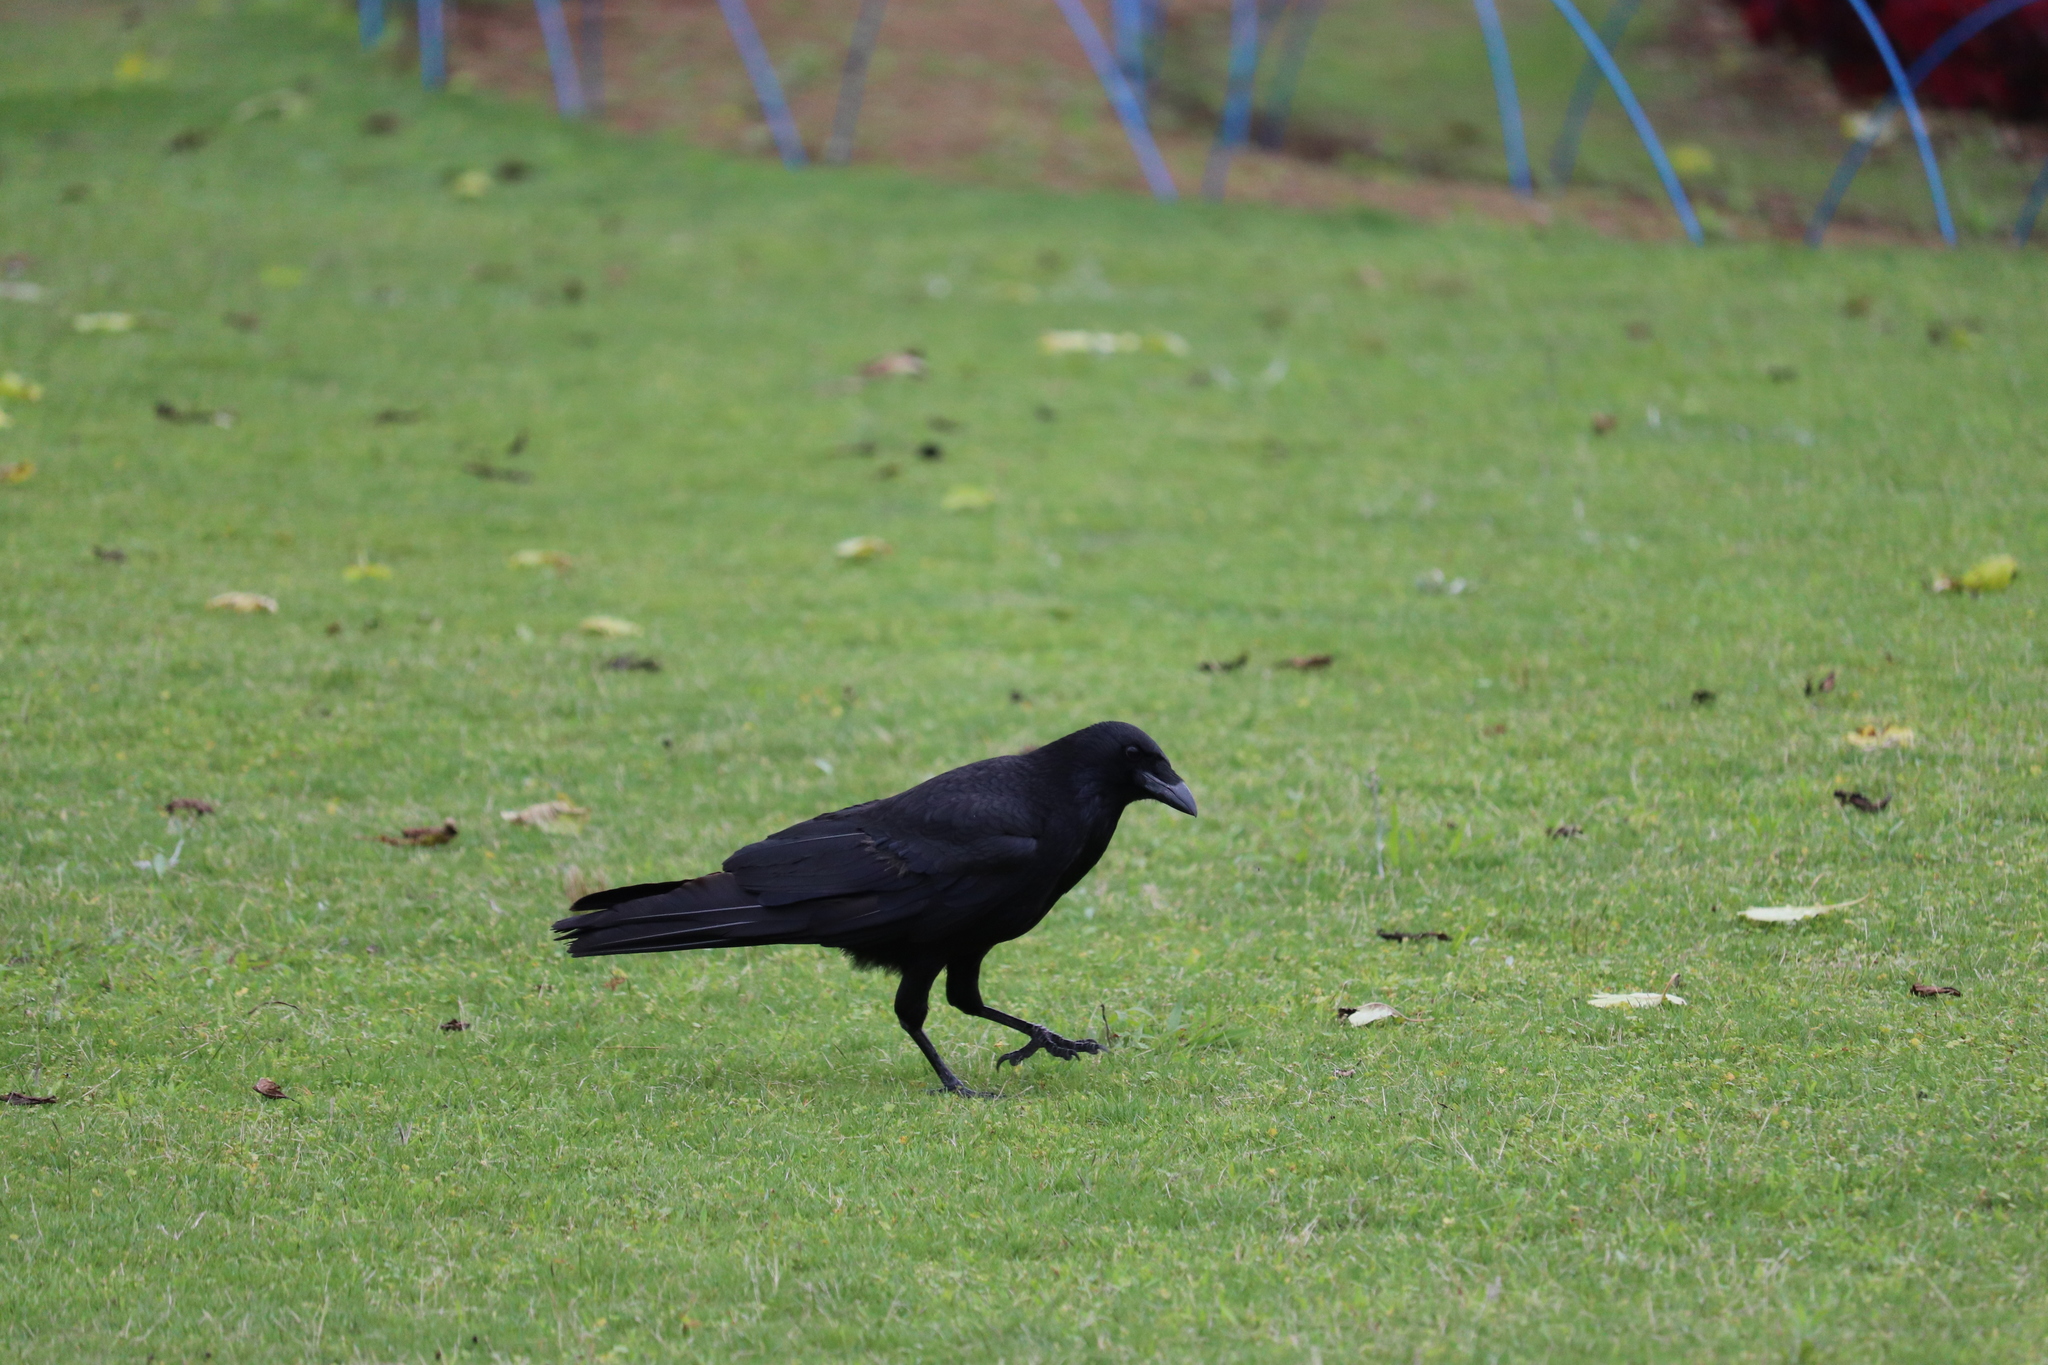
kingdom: Animalia
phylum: Chordata
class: Aves
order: Passeriformes
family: Corvidae
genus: Corvus
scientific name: Corvus corone
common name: Carrion crow
